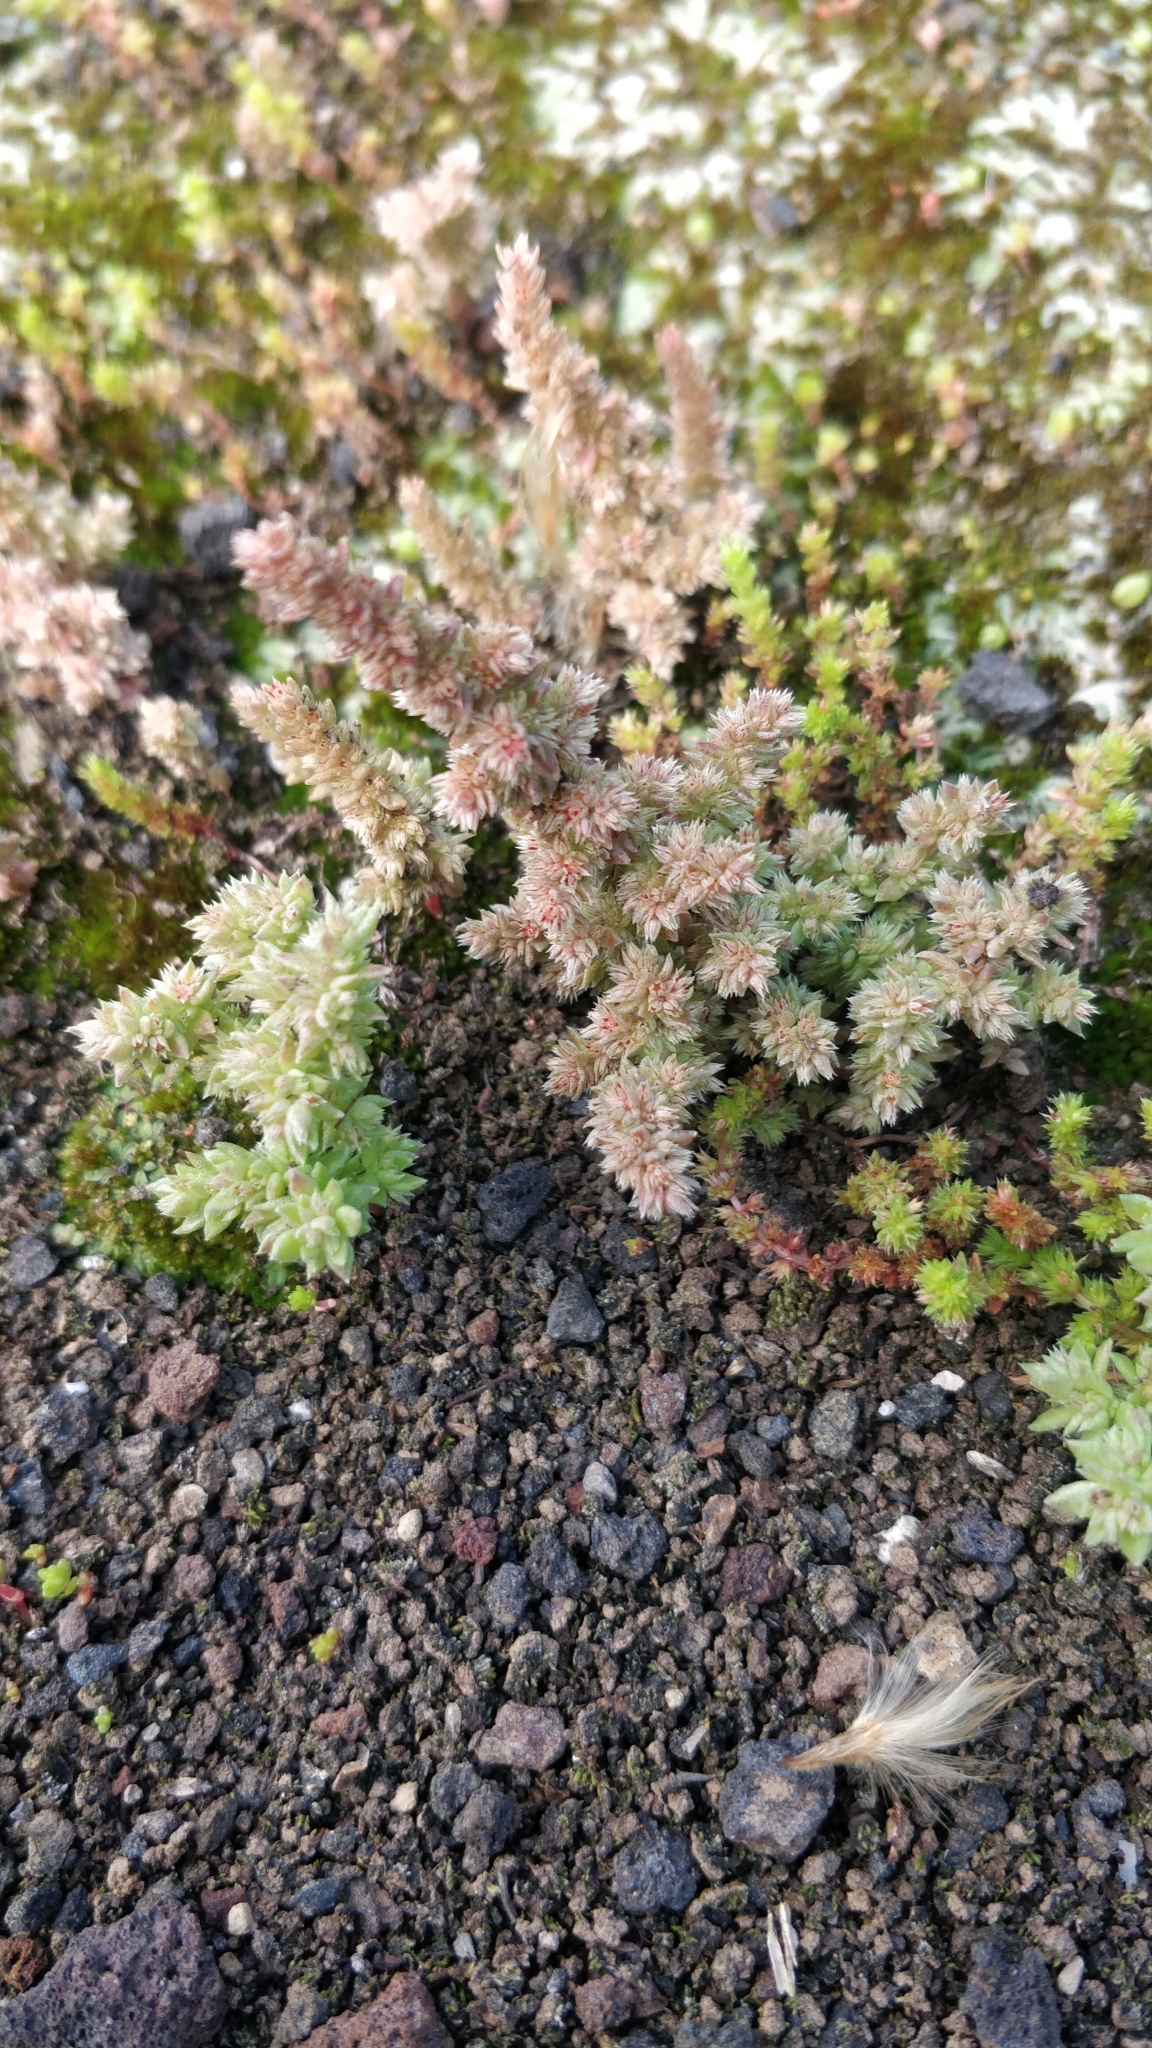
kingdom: Plantae
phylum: Tracheophyta
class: Magnoliopsida
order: Saxifragales
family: Crassulaceae
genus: Crassula
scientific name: Crassula tillaea
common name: Mossy stonecrop
